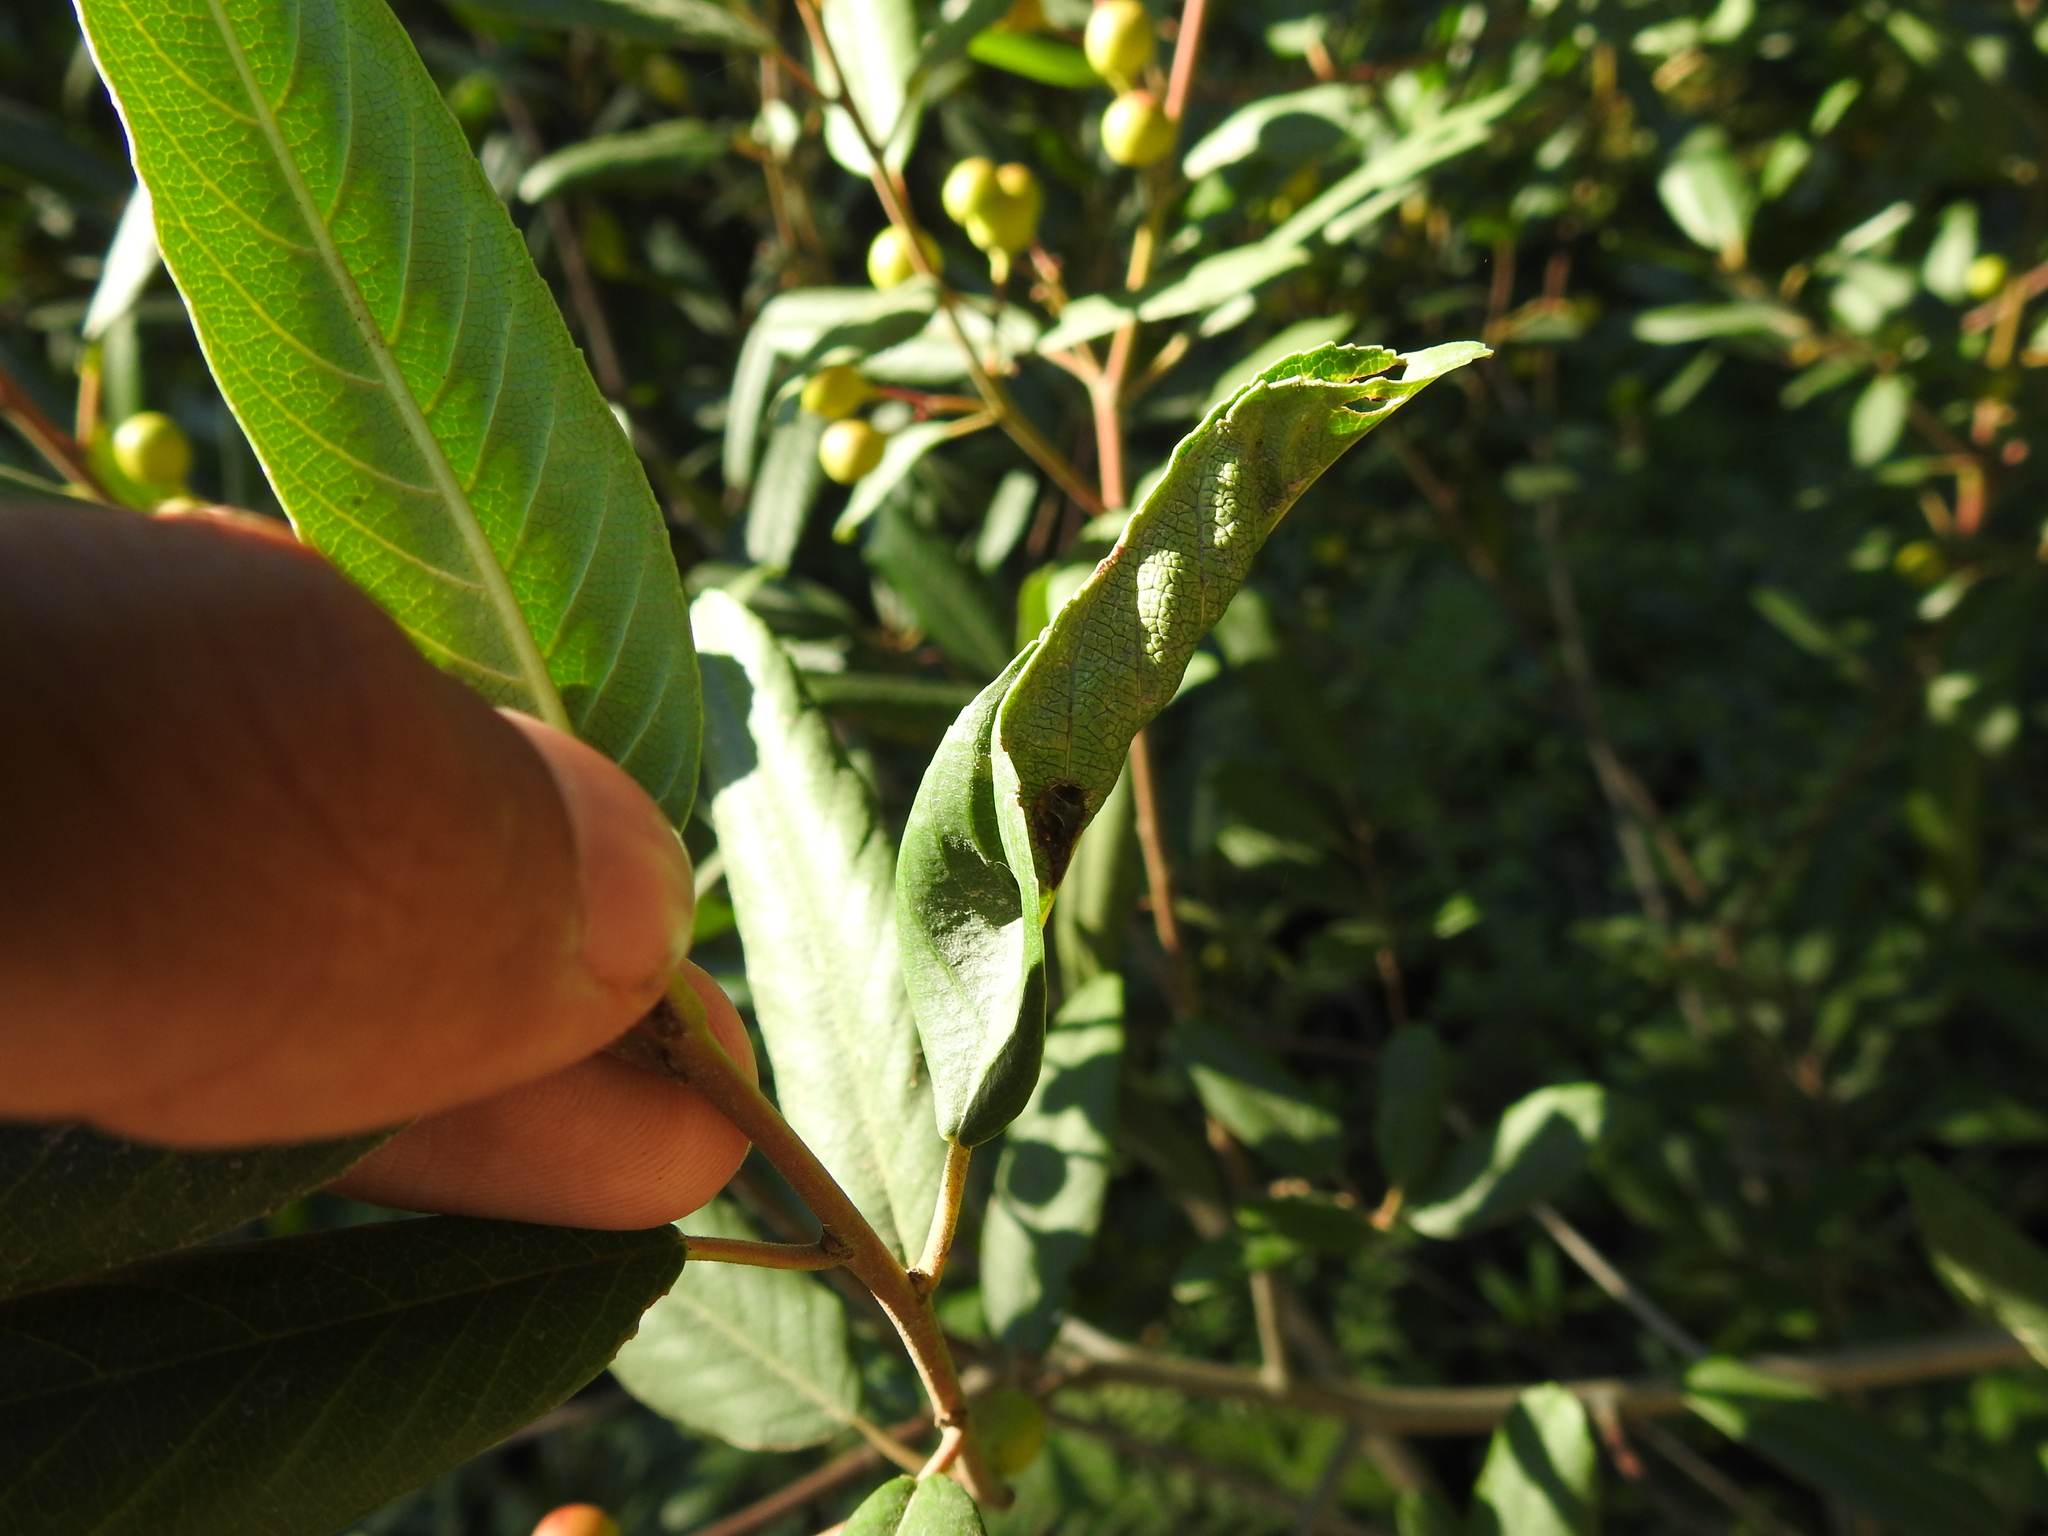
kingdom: Animalia
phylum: Arthropoda
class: Insecta
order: Lepidoptera
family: Cosmopterigidae
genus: Sorhagenia
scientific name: Sorhagenia nimbosus
